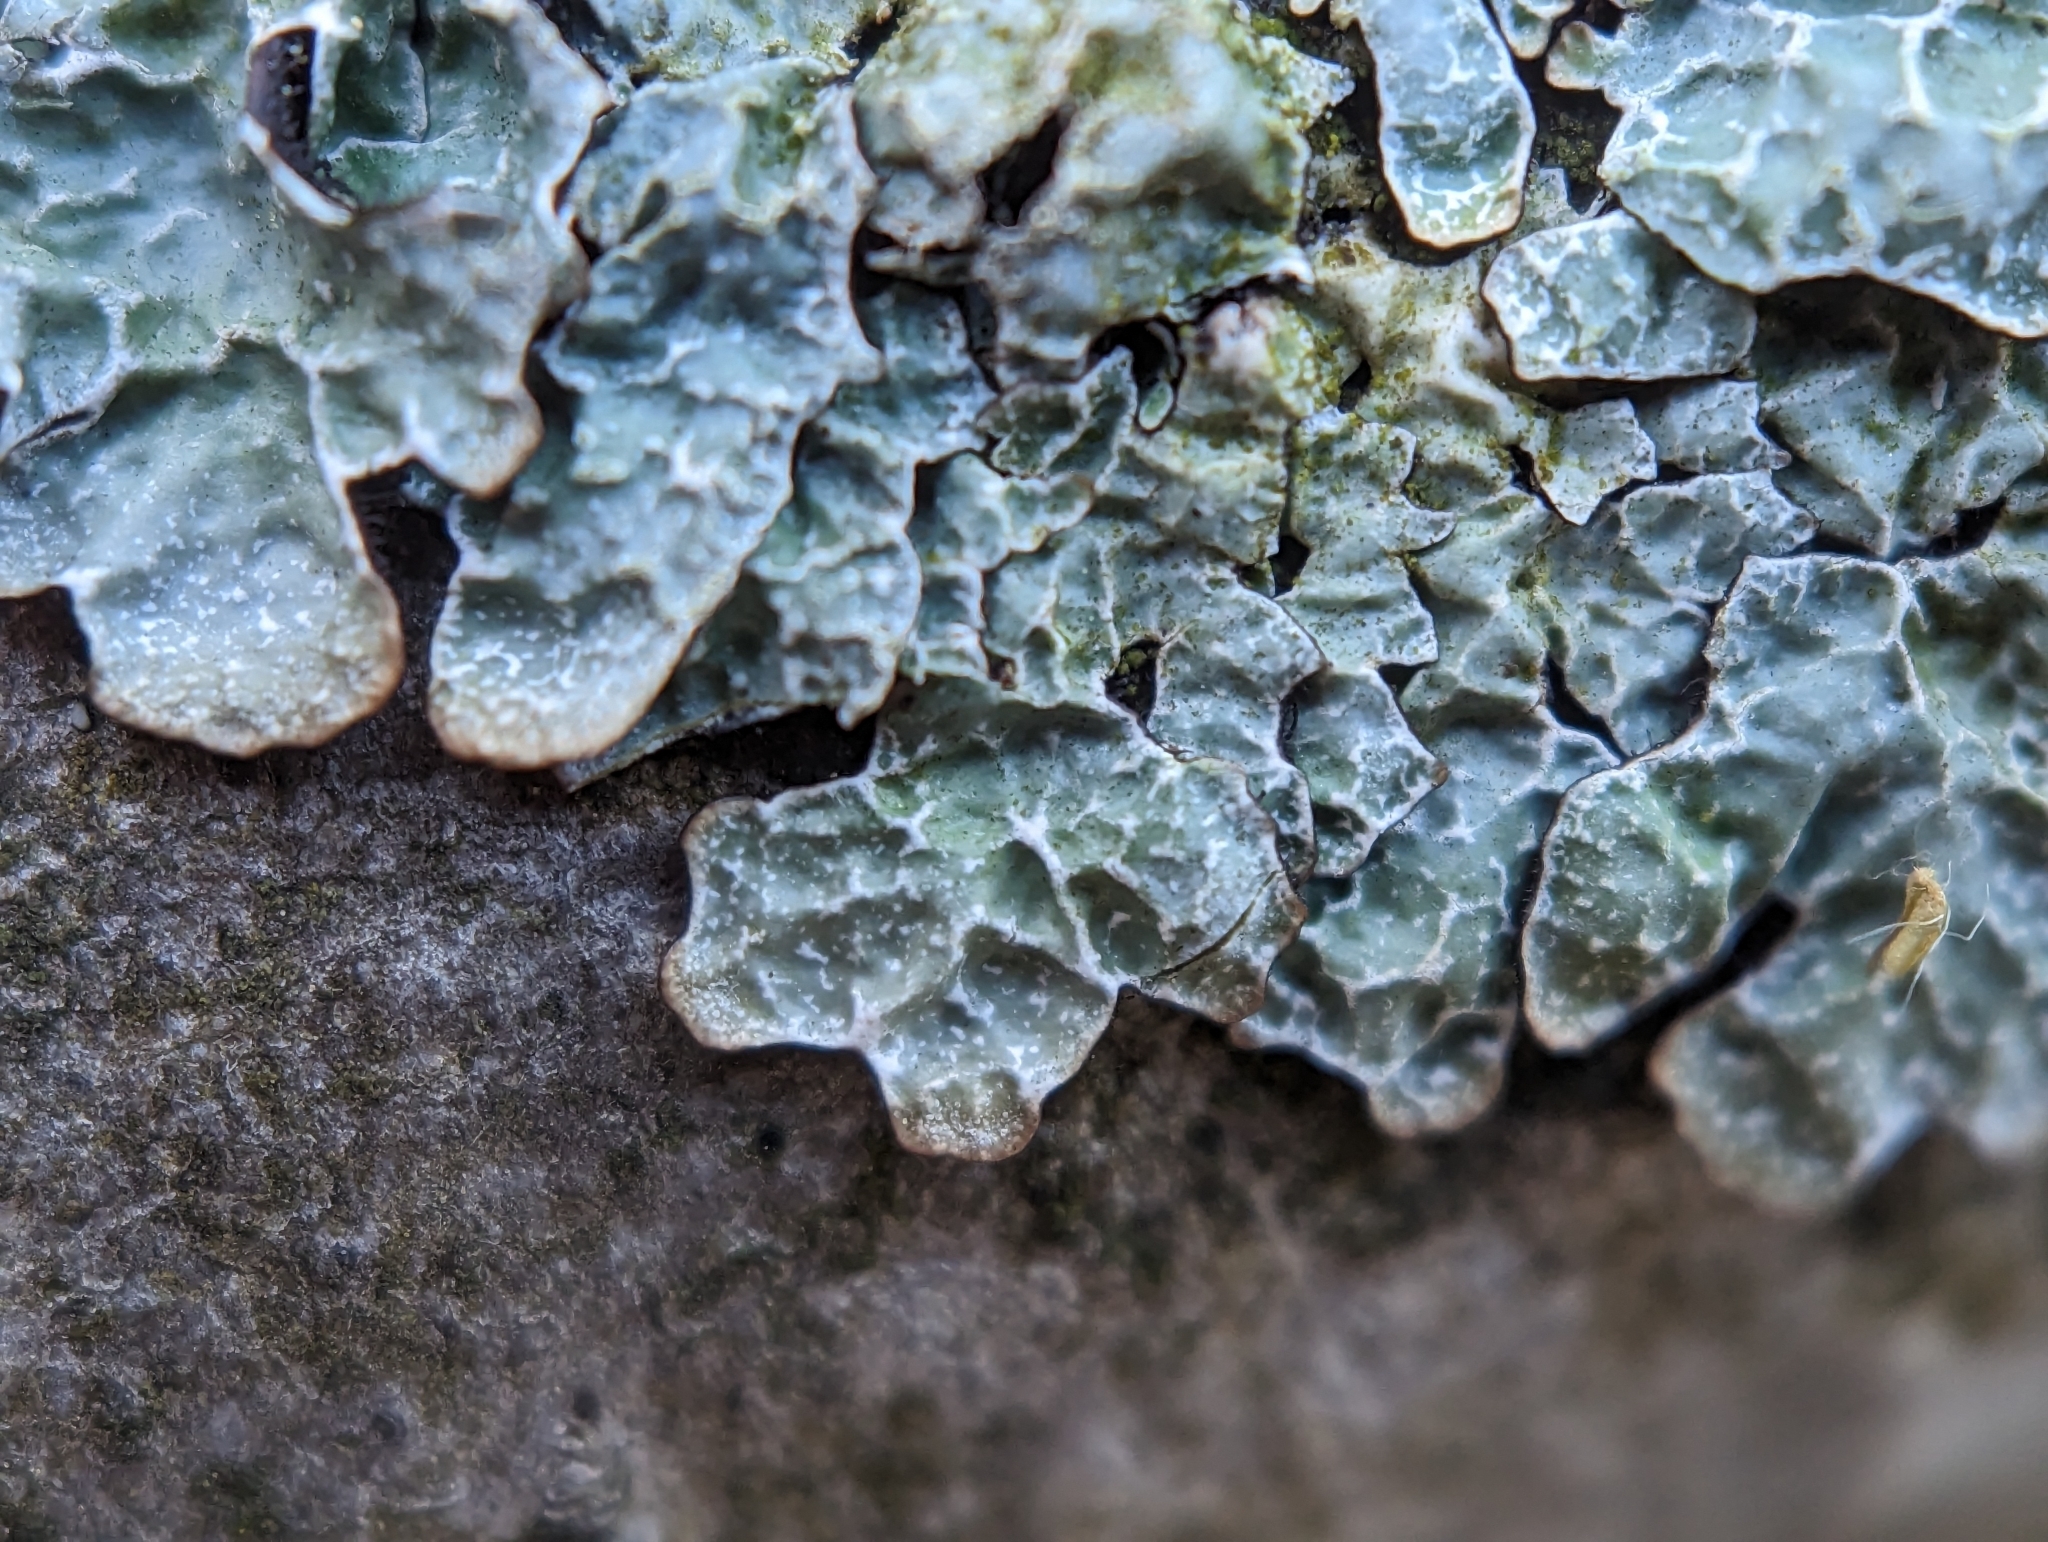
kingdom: Fungi
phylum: Ascomycota
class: Lecanoromycetes
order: Lecanorales
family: Parmeliaceae
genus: Parmelia
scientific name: Parmelia sulcata
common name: Netted shield lichen
